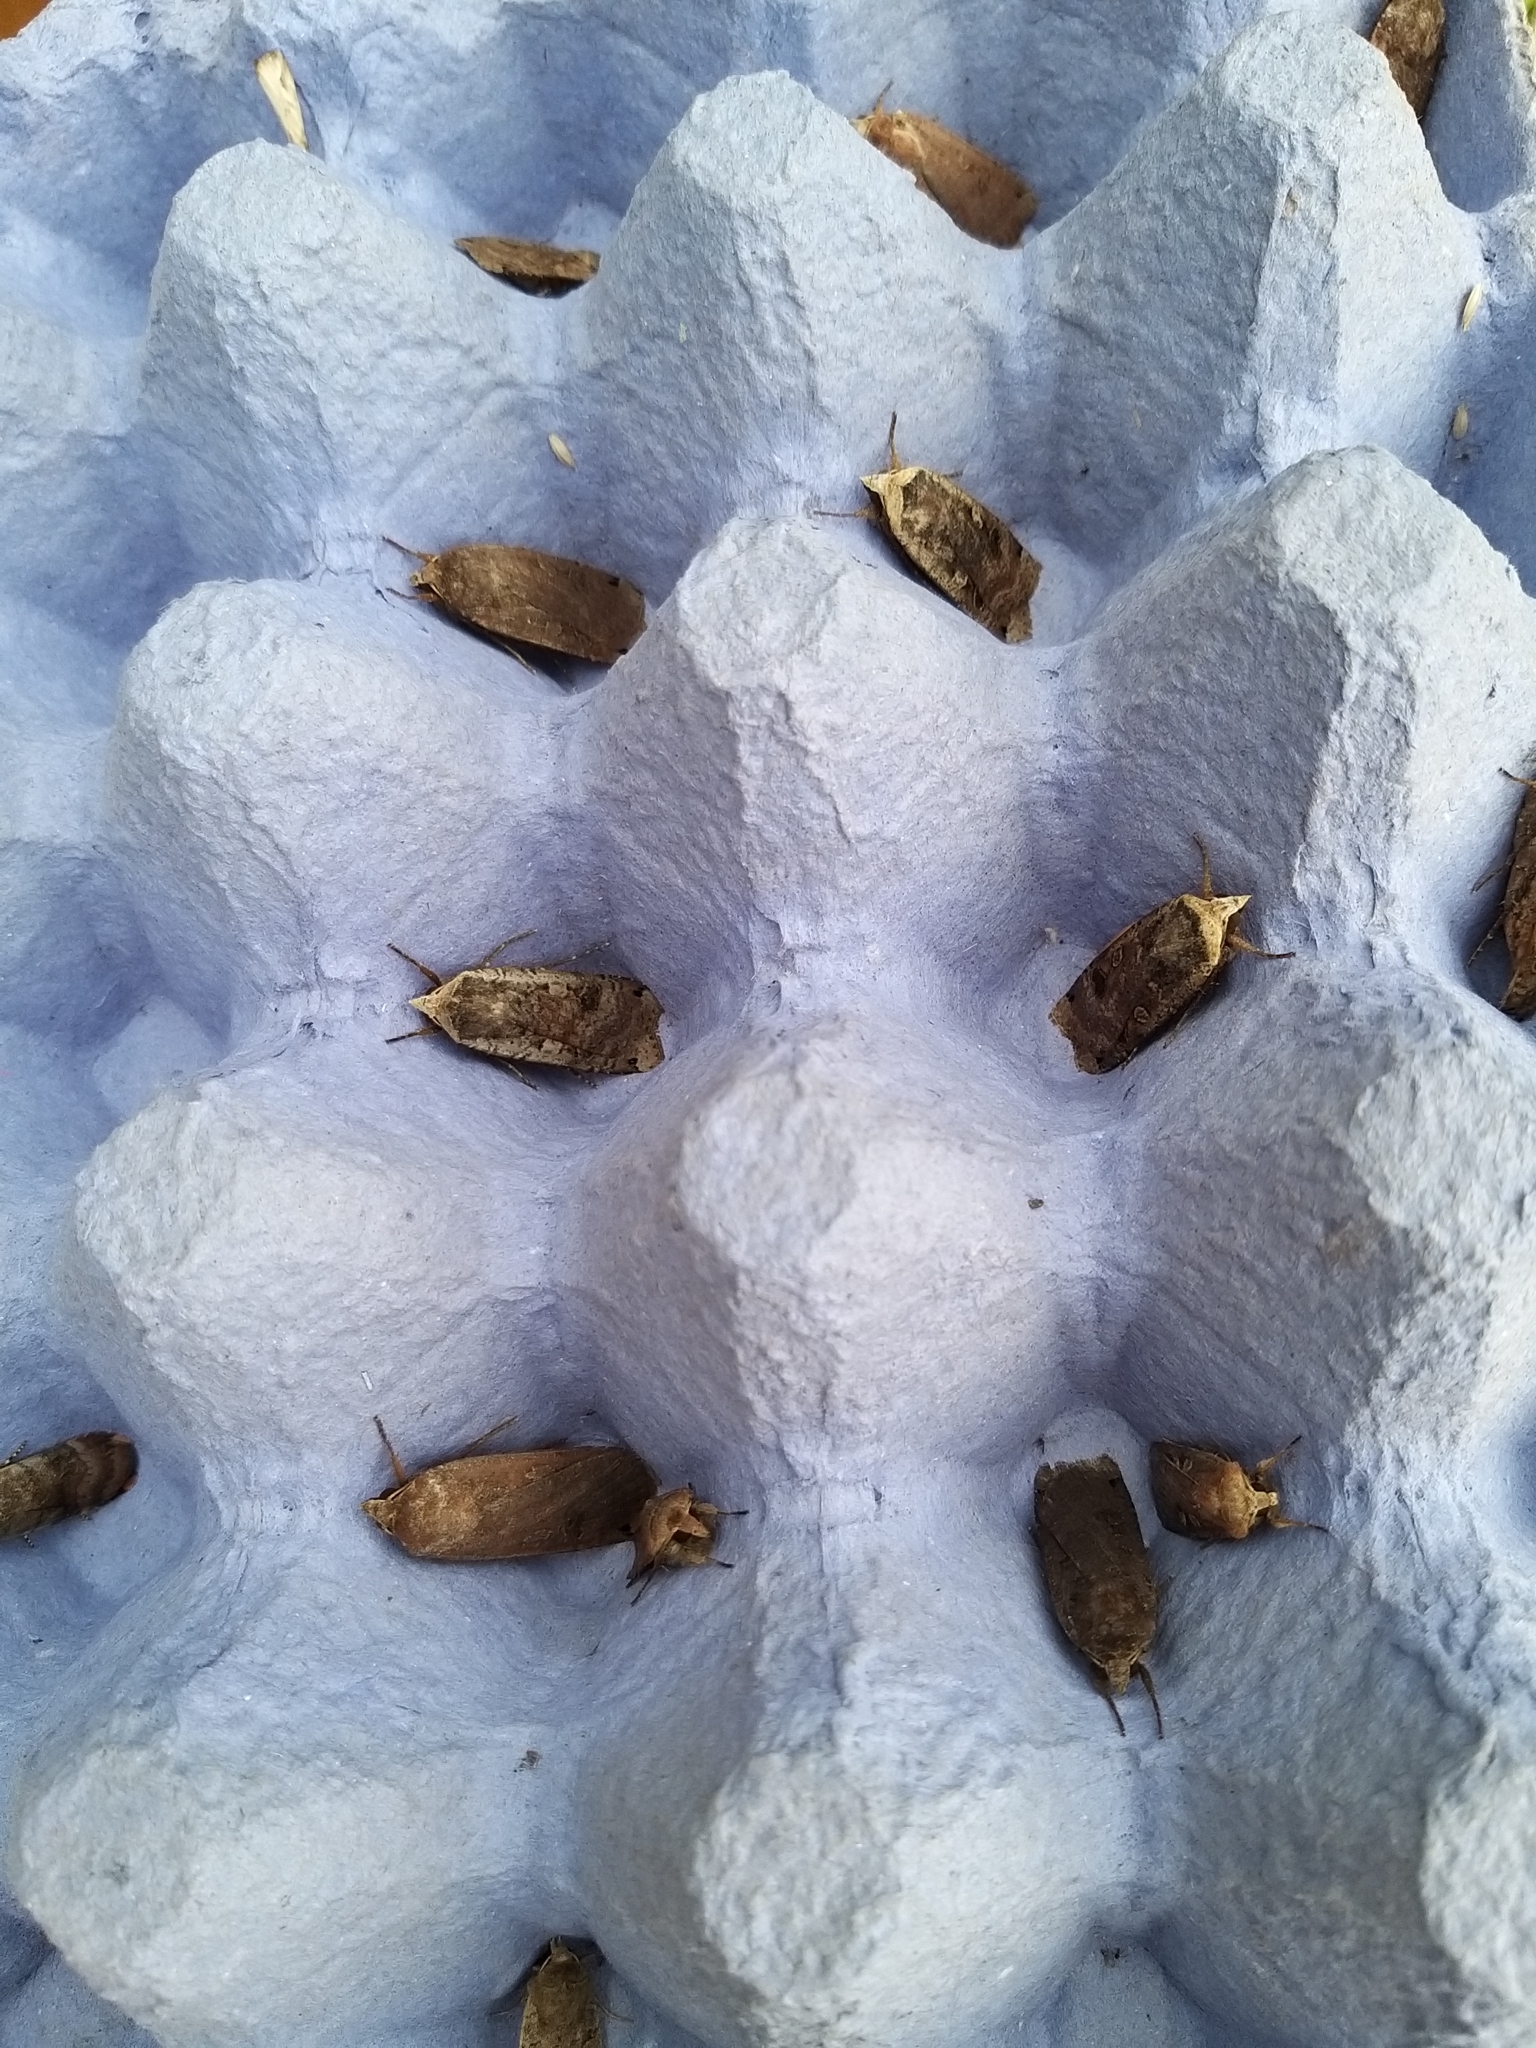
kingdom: Animalia
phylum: Arthropoda
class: Insecta
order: Lepidoptera
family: Noctuidae
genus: Noctua
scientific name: Noctua pronuba
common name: Large yellow underwing
